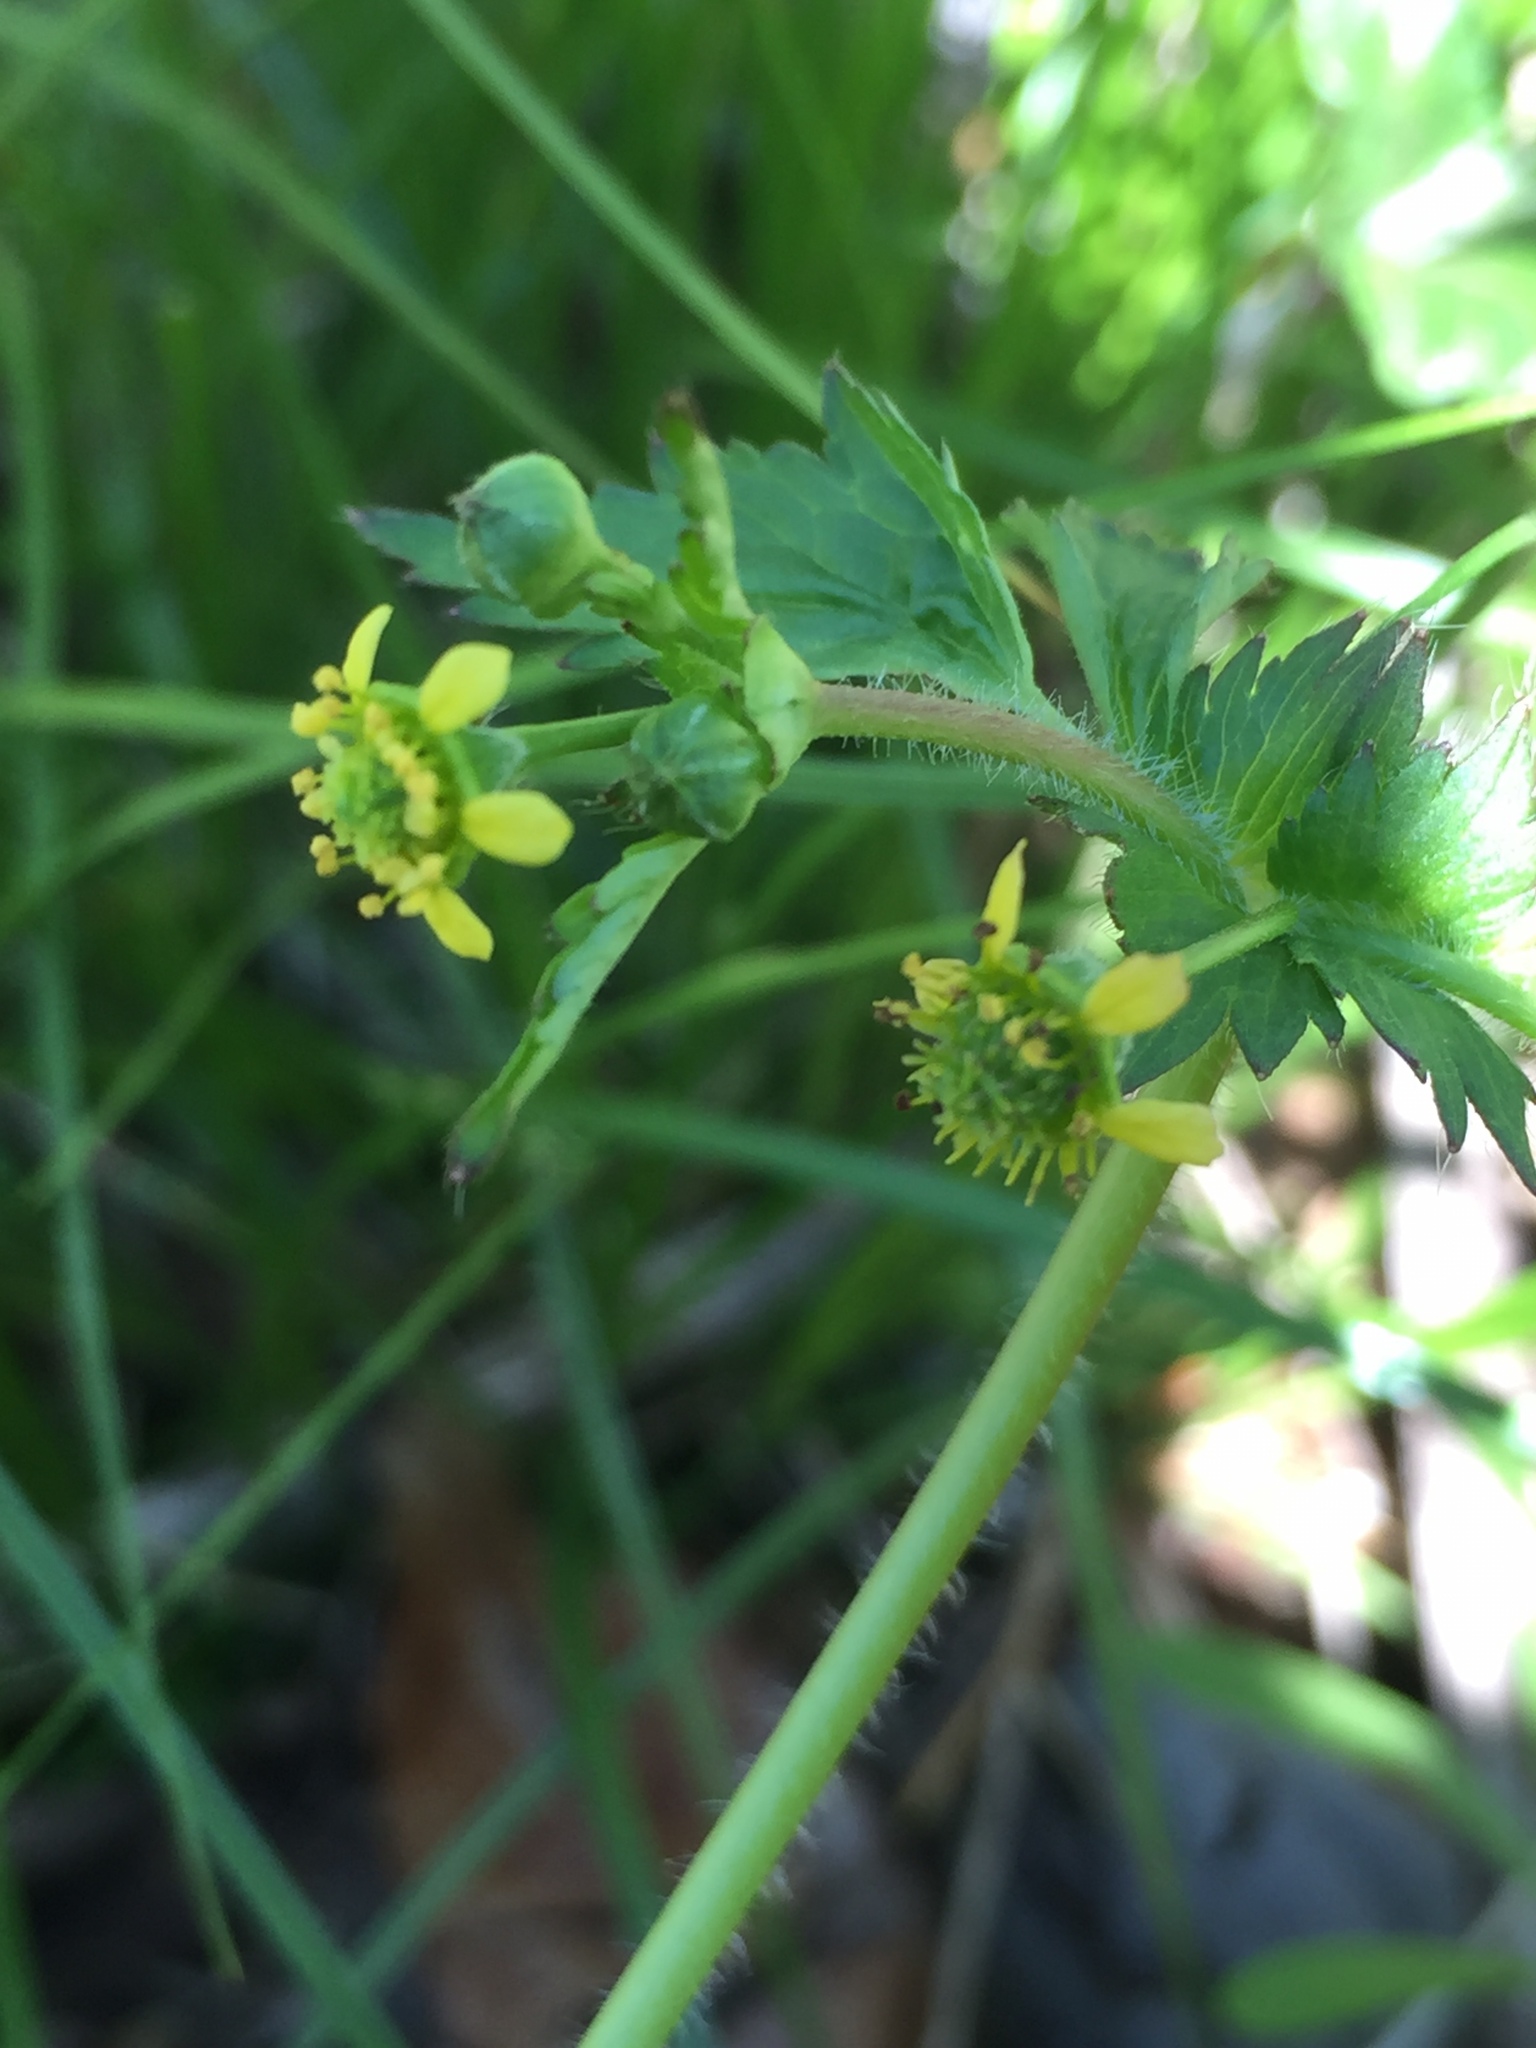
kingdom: Plantae
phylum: Tracheophyta
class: Magnoliopsida
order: Rosales
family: Rosaceae
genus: Geum
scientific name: Geum vernum
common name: Spring avens
